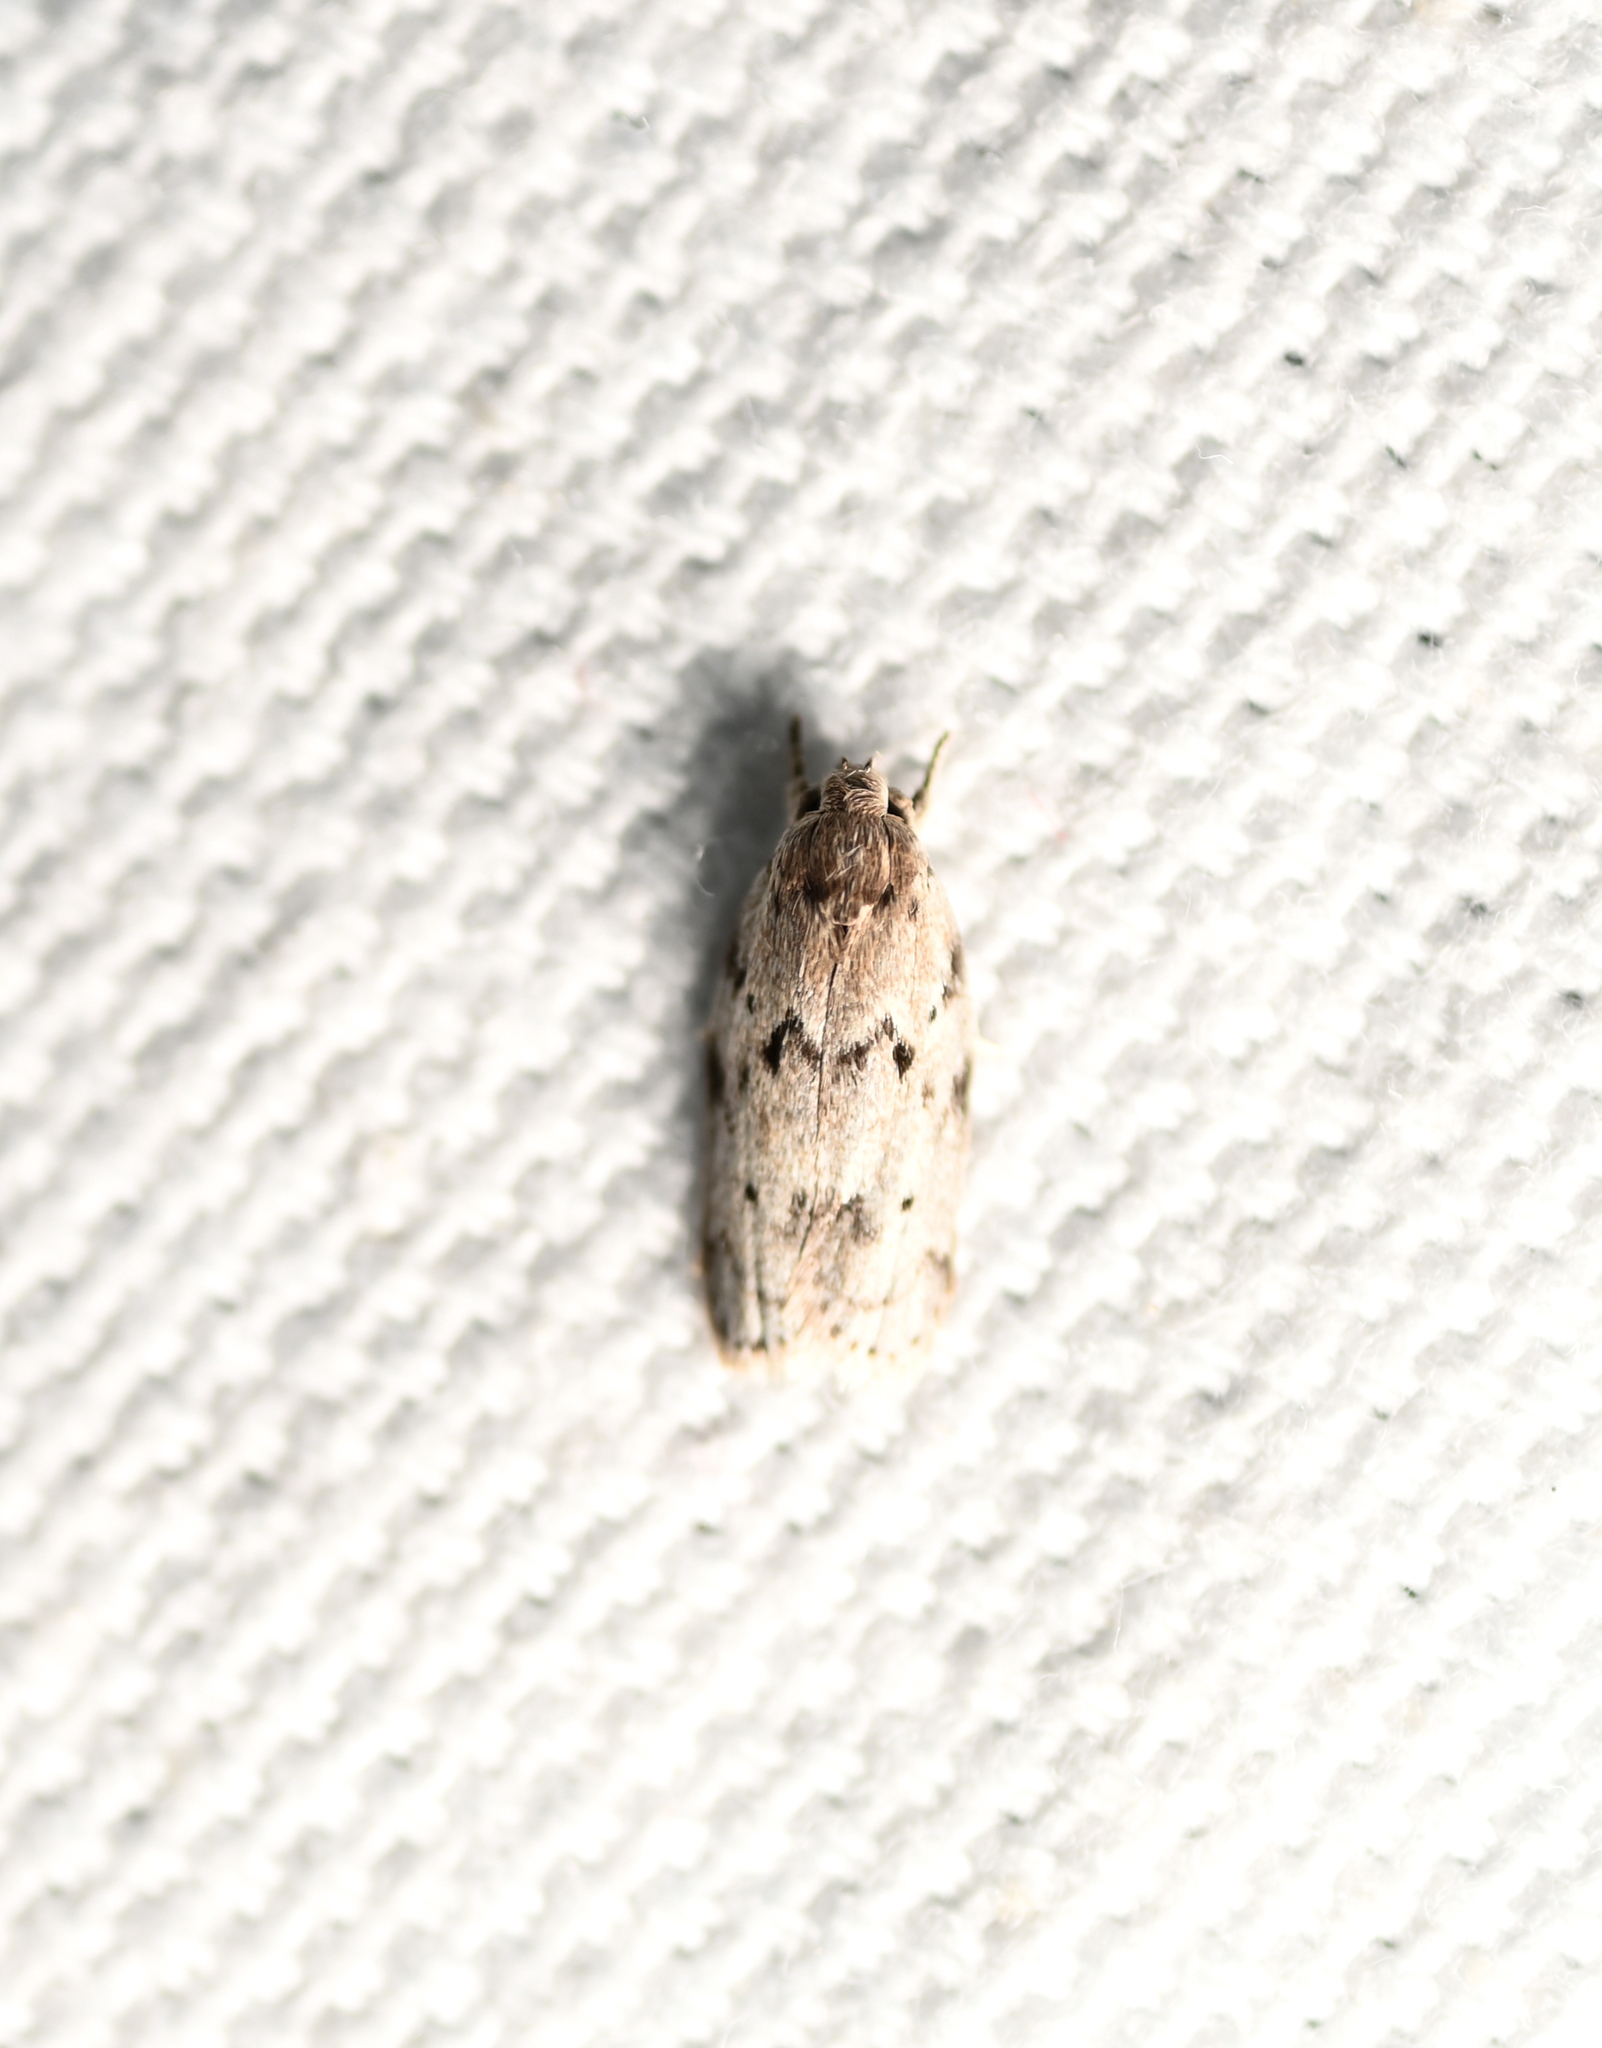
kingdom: Animalia
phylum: Arthropoda
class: Insecta
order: Lepidoptera
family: Depressariidae
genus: Antaeotricha
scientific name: Antaeotricha humilis
